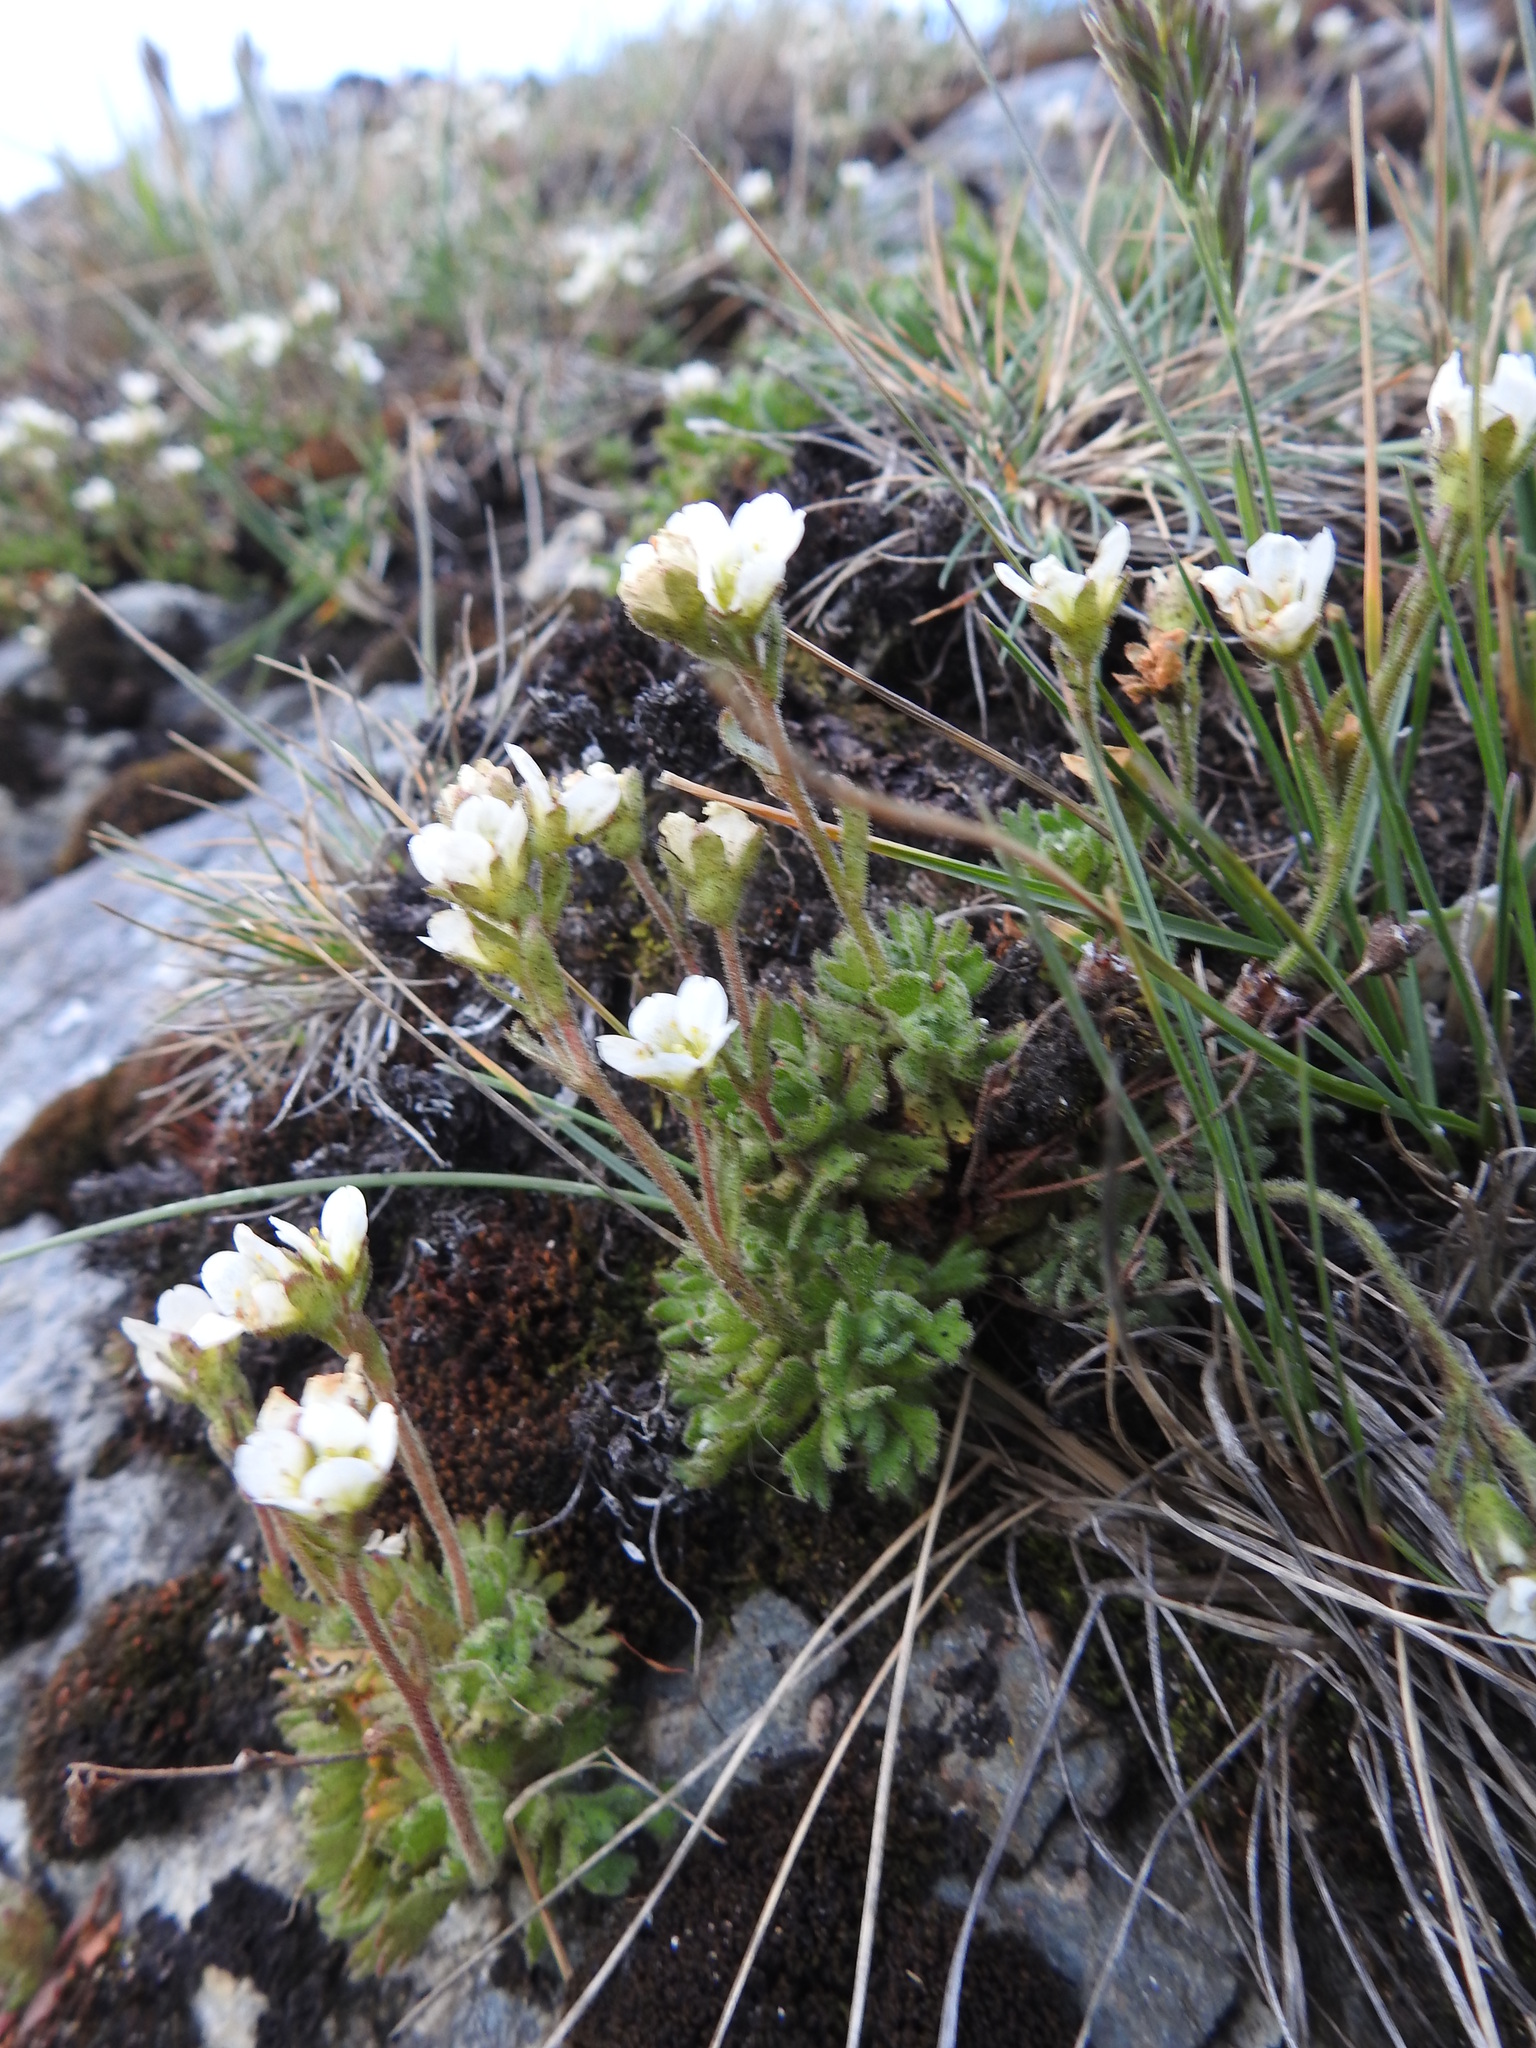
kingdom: Plantae
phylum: Tracheophyta
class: Magnoliopsida
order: Saxifragales
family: Saxifragaceae
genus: Saxifraga
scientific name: Saxifraga magellanica
